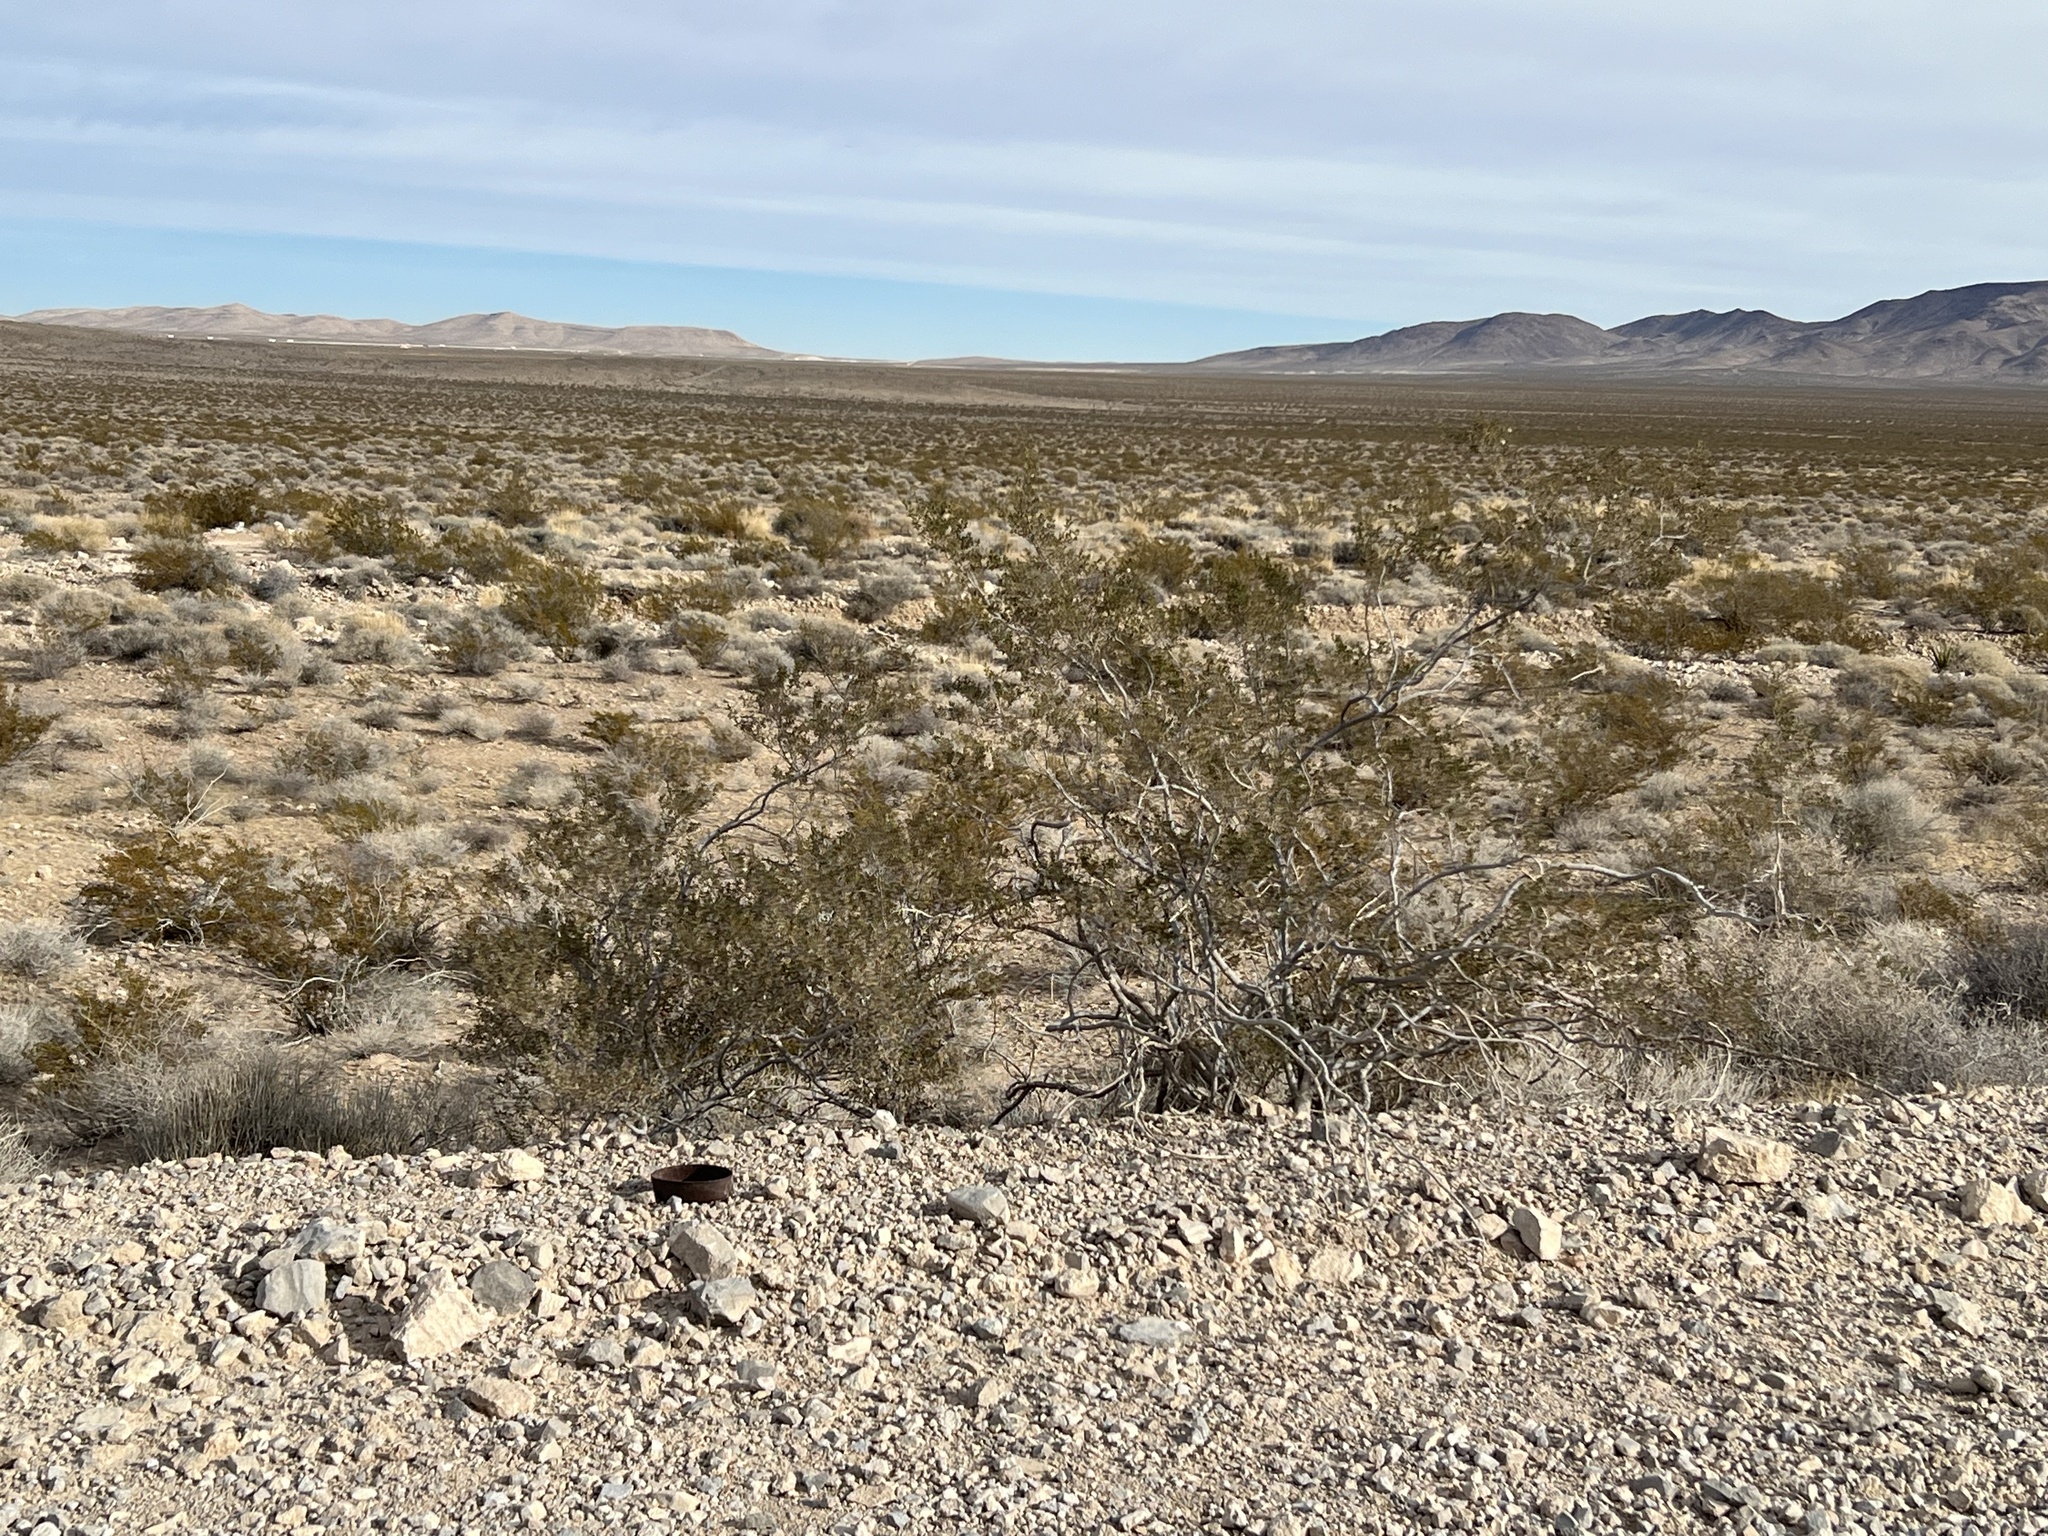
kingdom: Plantae
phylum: Tracheophyta
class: Magnoliopsida
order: Zygophyllales
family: Zygophyllaceae
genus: Larrea
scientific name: Larrea tridentata
